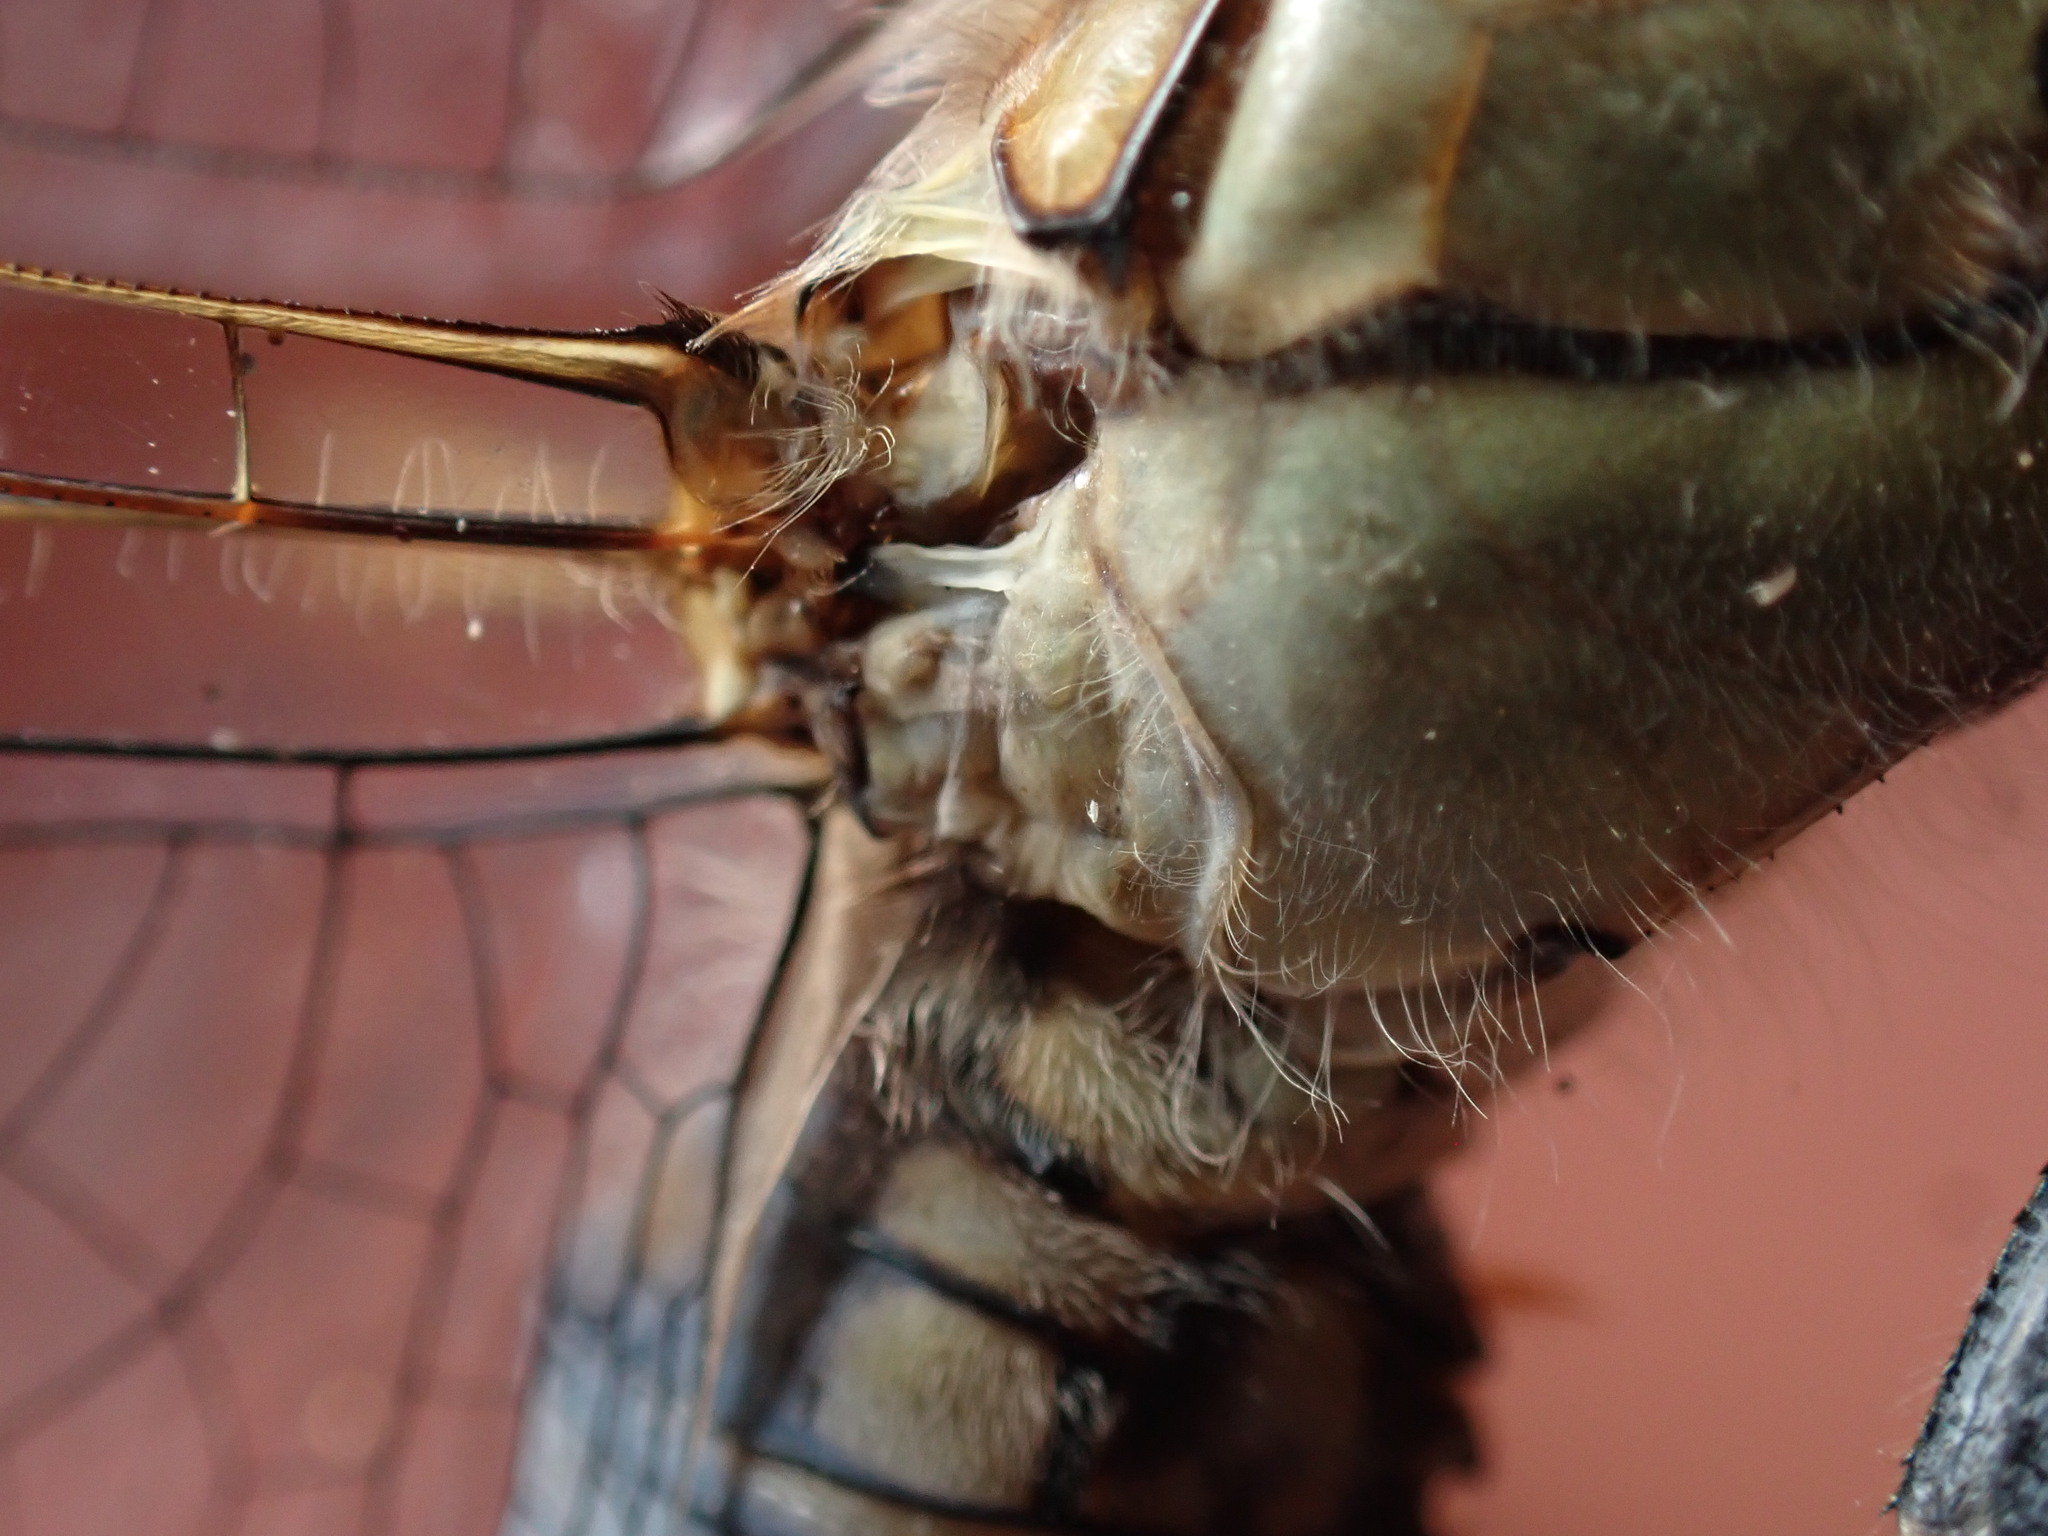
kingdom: Animalia
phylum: Arthropoda
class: Insecta
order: Odonata
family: Libellulidae
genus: Orthetrum
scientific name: Orthetrum caledonicum
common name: Blue skimmer
